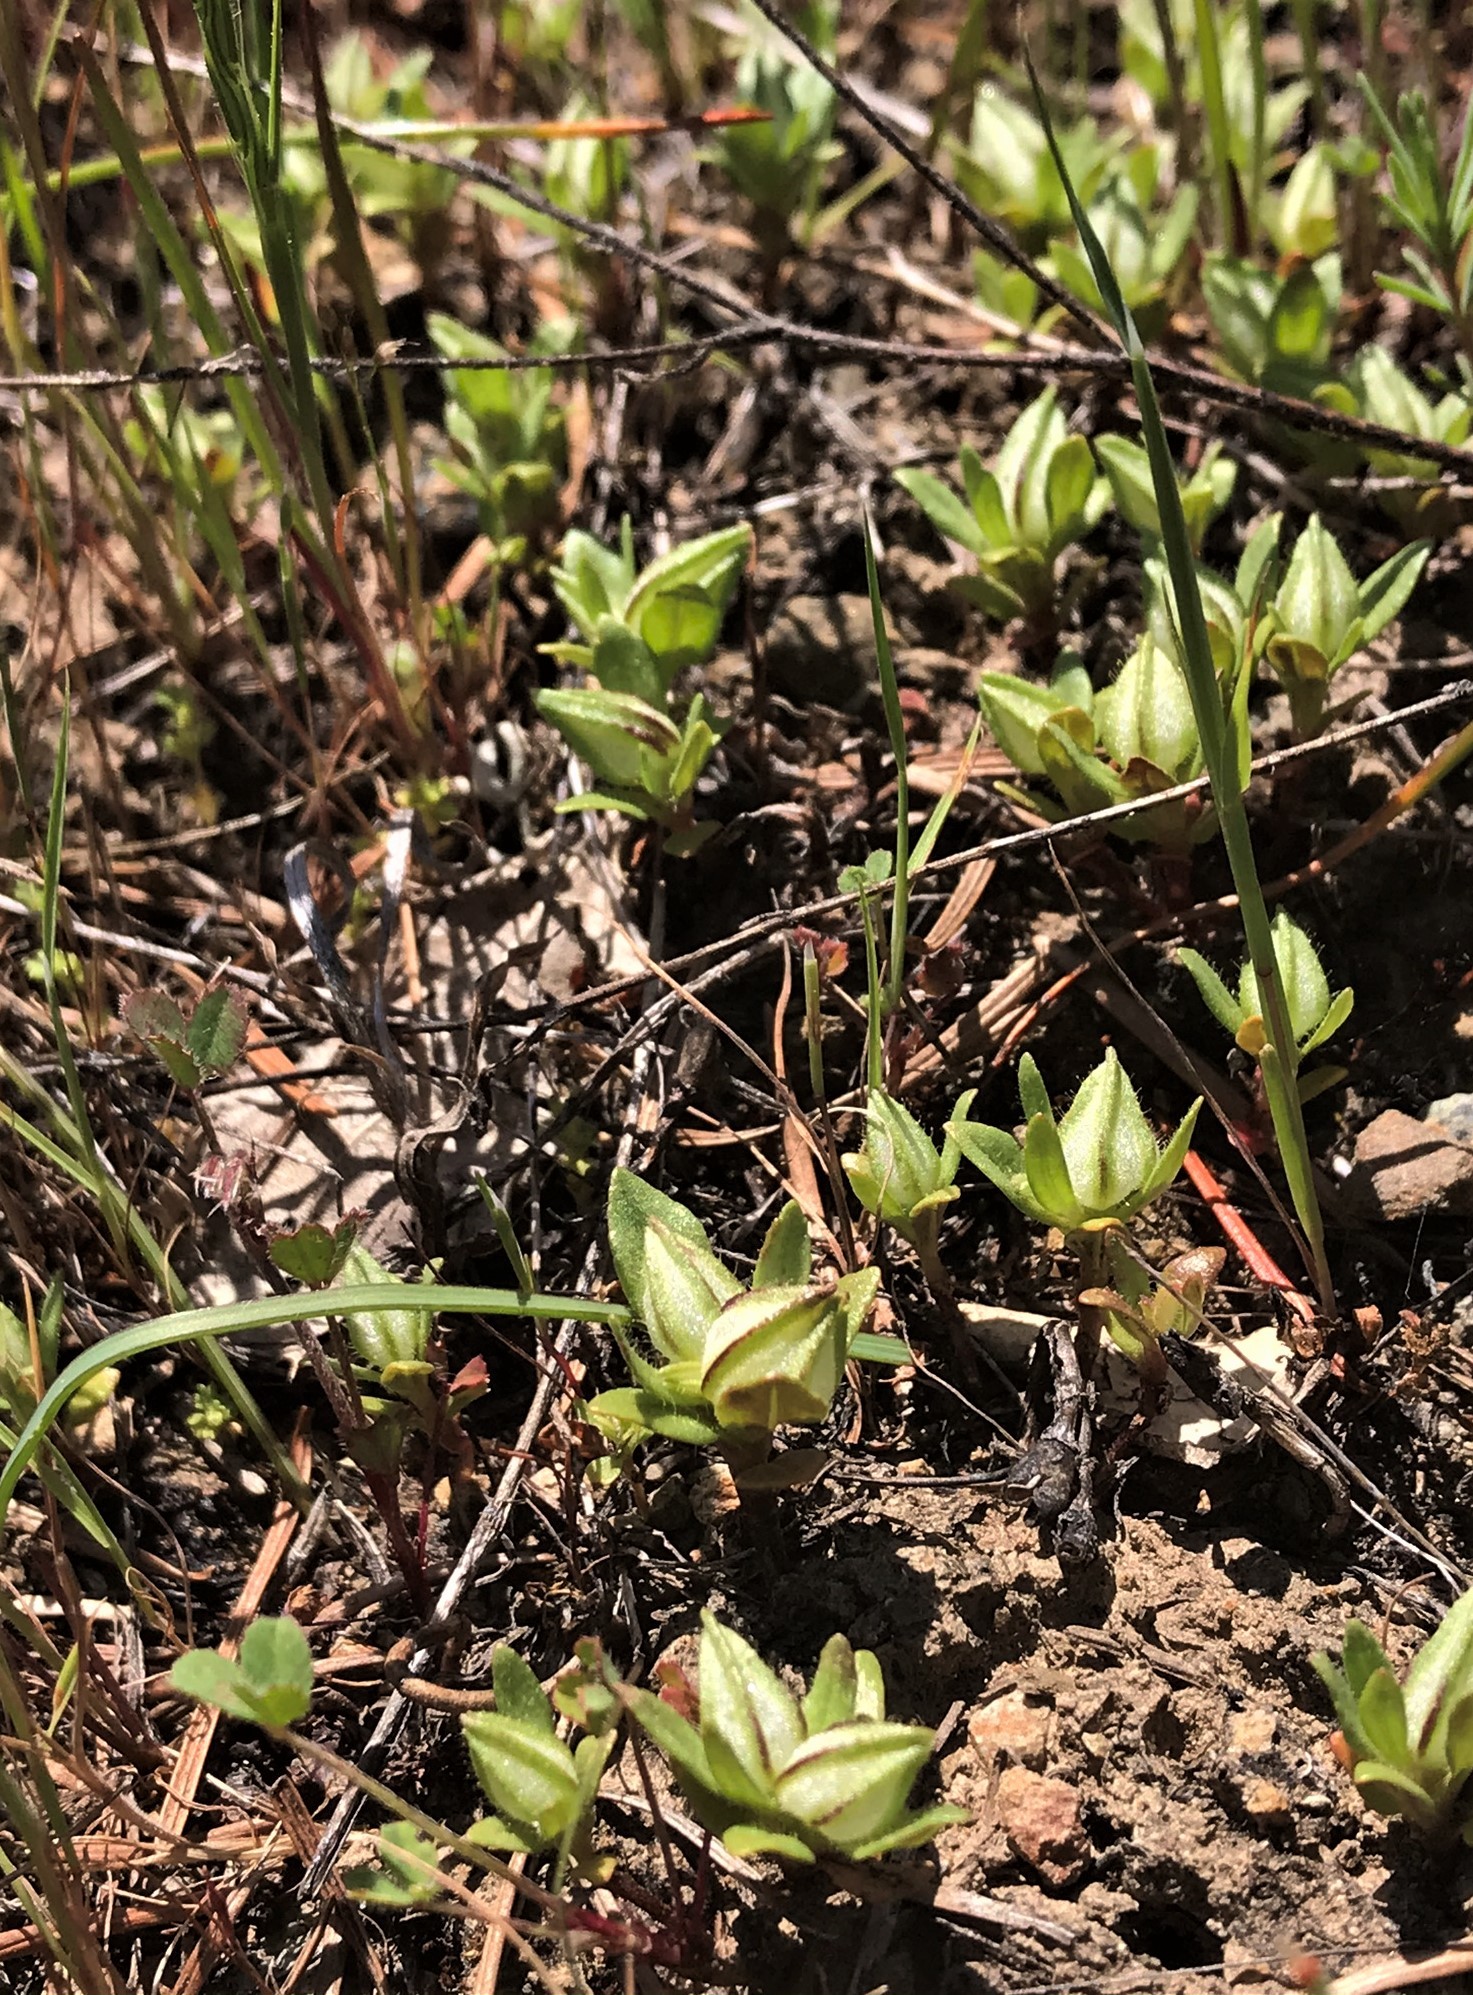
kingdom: Plantae
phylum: Tracheophyta
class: Magnoliopsida
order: Lamiales
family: Phrymaceae
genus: Diplacus
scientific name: Diplacus douglasii
